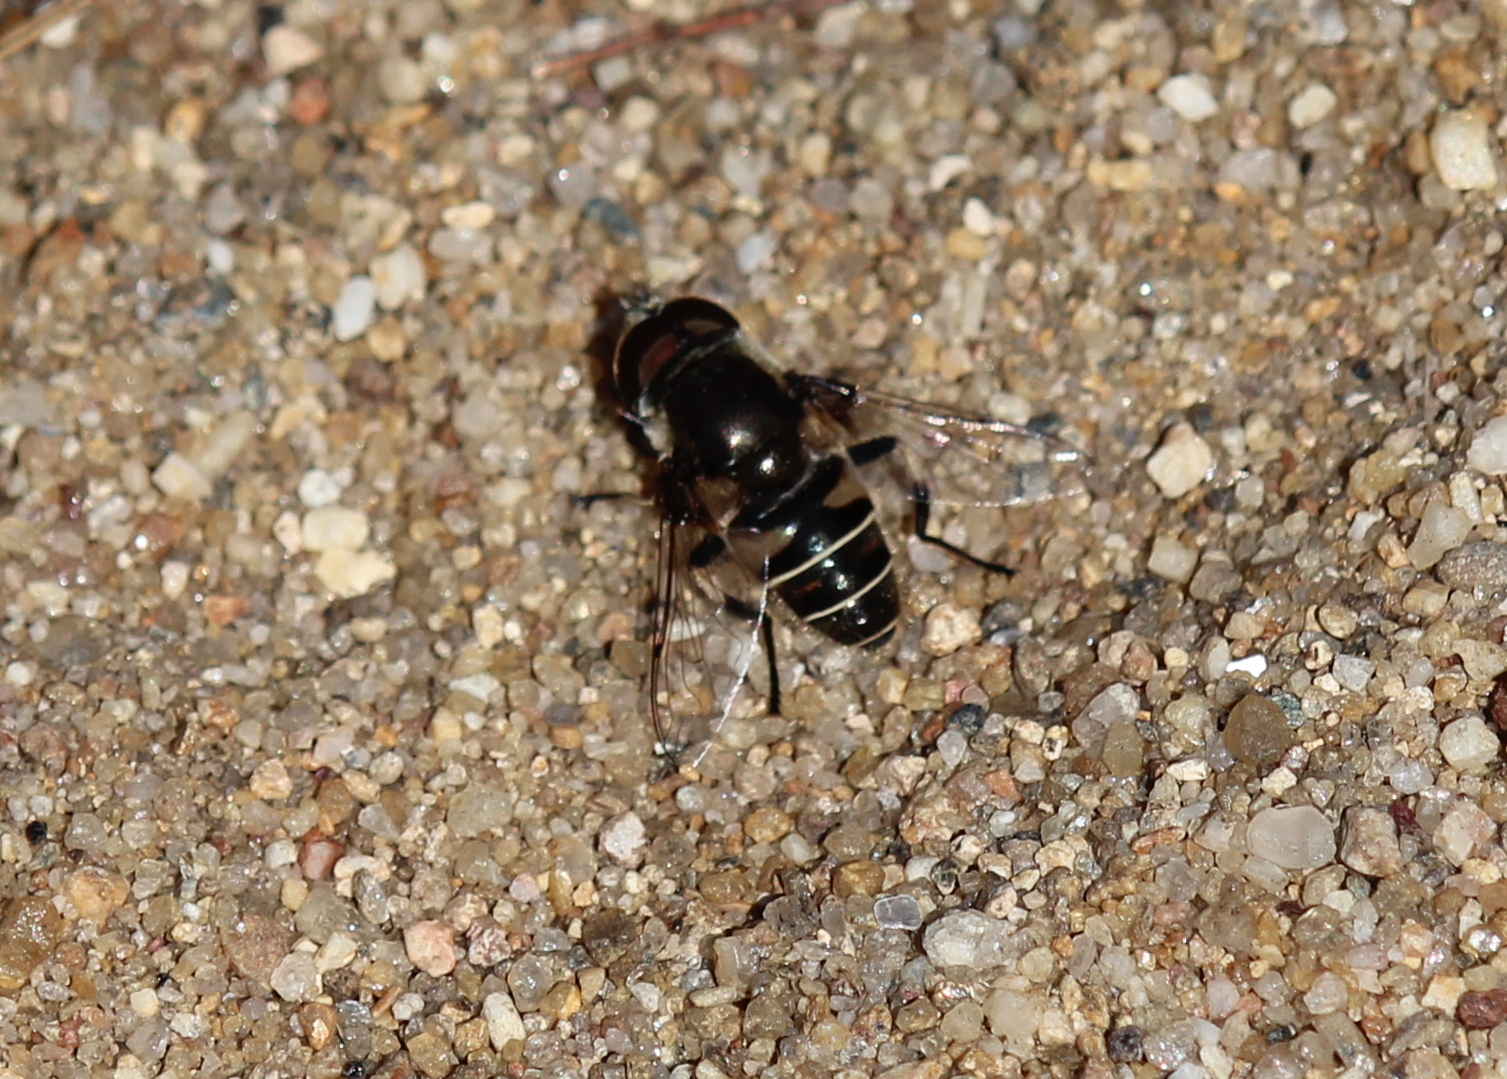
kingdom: Animalia
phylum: Arthropoda
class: Insecta
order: Diptera
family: Syrphidae
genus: Eristalis
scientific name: Eristalis dimidiata
